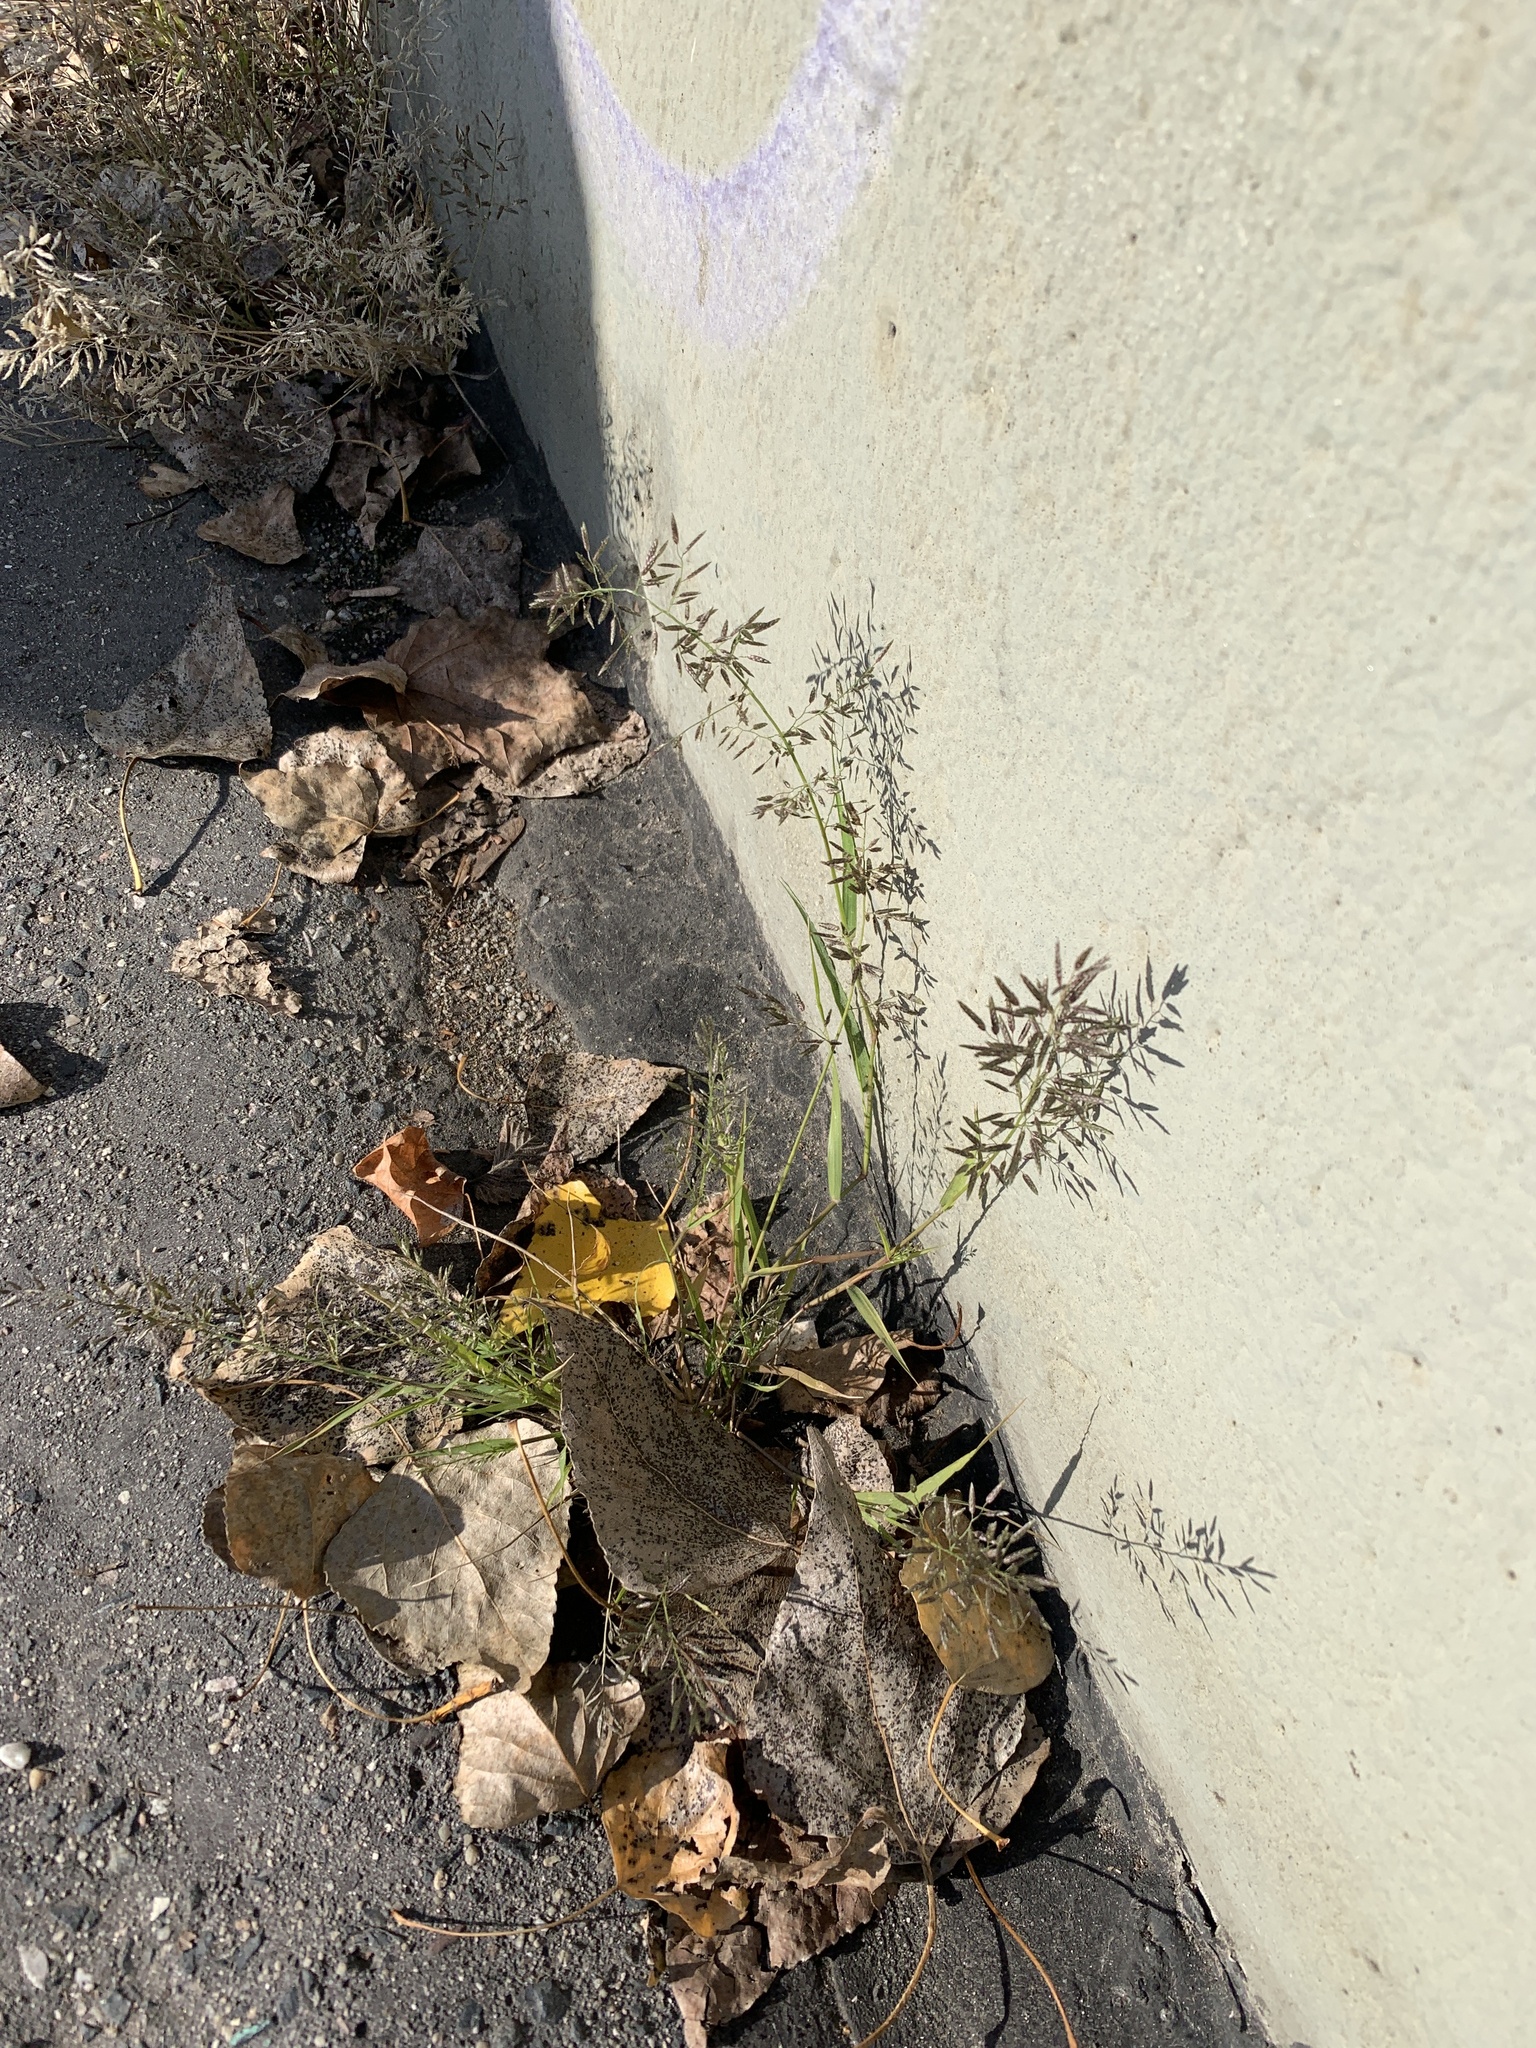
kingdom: Plantae
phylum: Tracheophyta
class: Liliopsida
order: Poales
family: Poaceae
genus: Eragrostis
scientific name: Eragrostis minor
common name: Small love-grass
